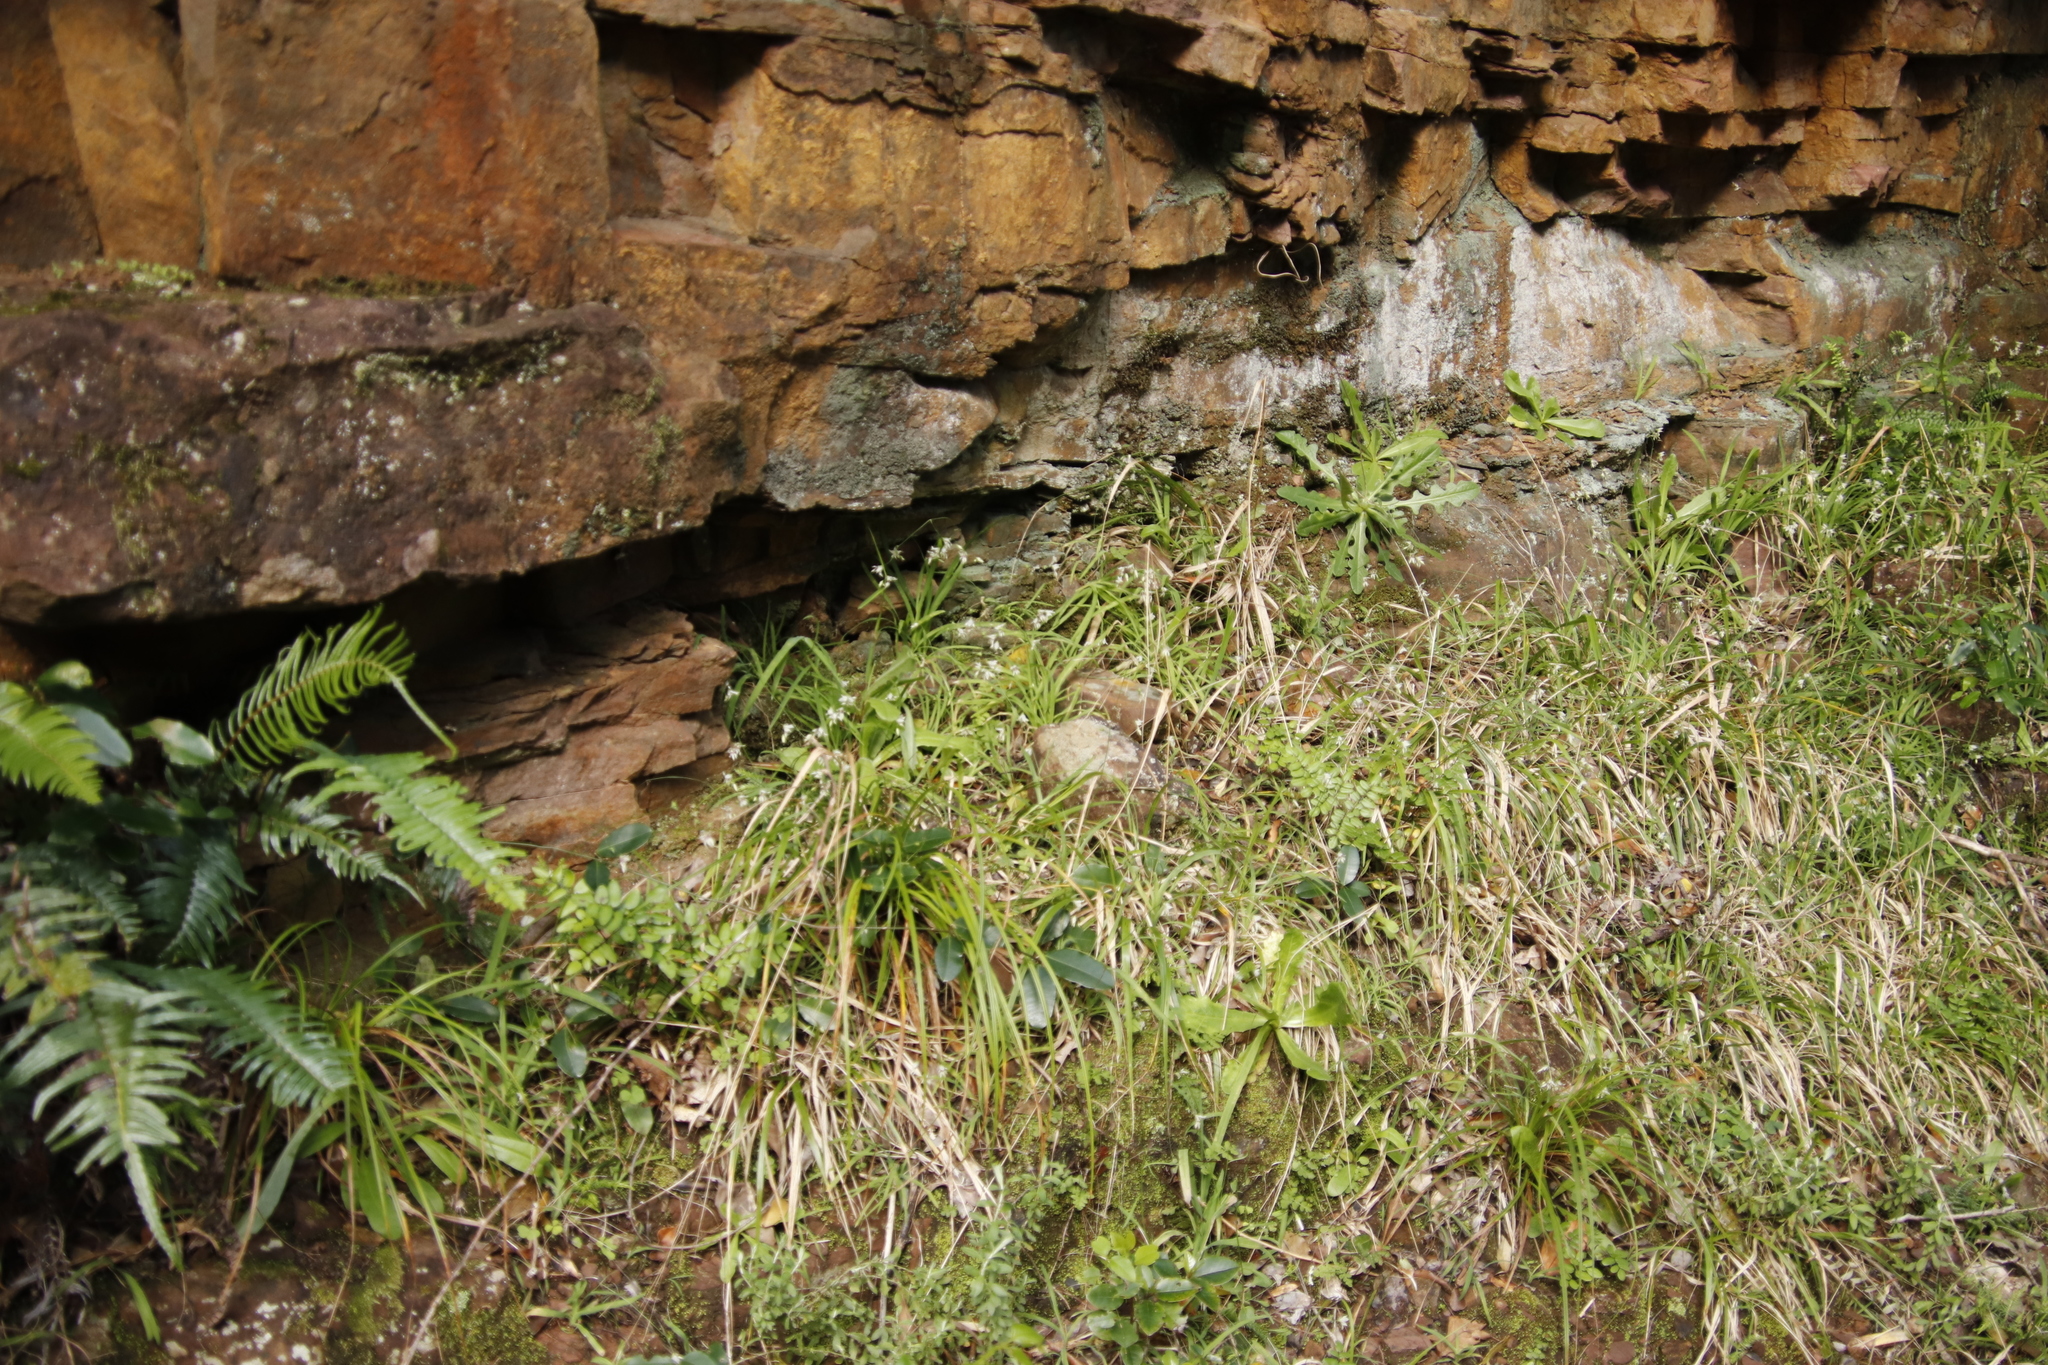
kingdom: Plantae
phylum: Tracheophyta
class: Liliopsida
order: Asparagales
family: Iridaceae
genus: Melasphaerula
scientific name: Melasphaerula graminea
